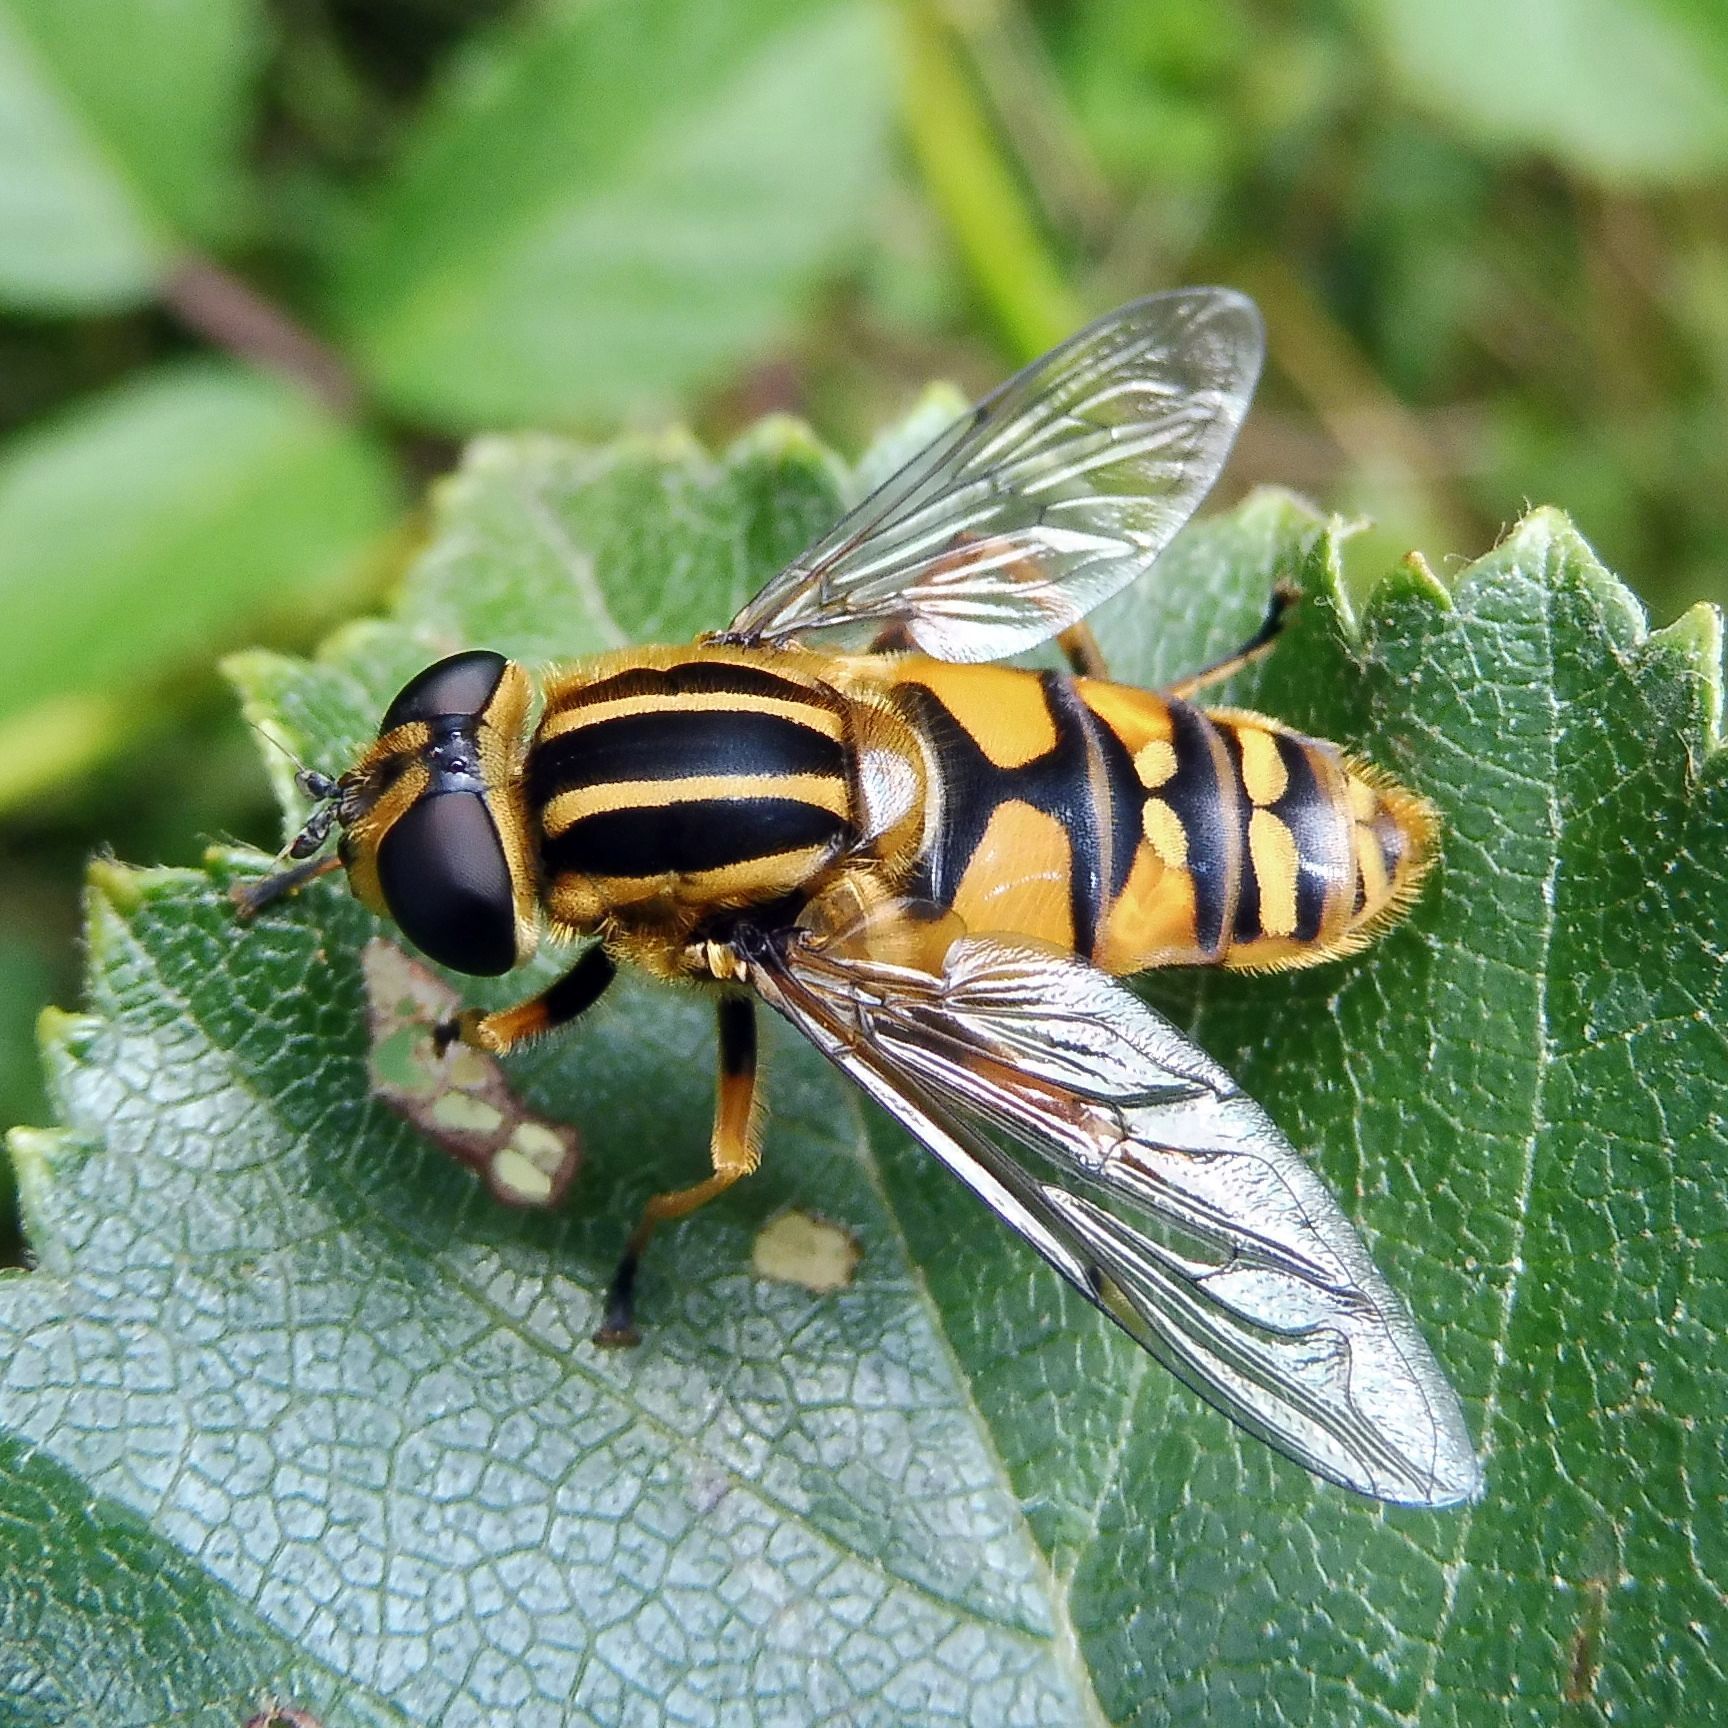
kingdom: Animalia
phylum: Arthropoda
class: Insecta
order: Diptera
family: Syrphidae
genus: Helophilus
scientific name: Helophilus pendulus
